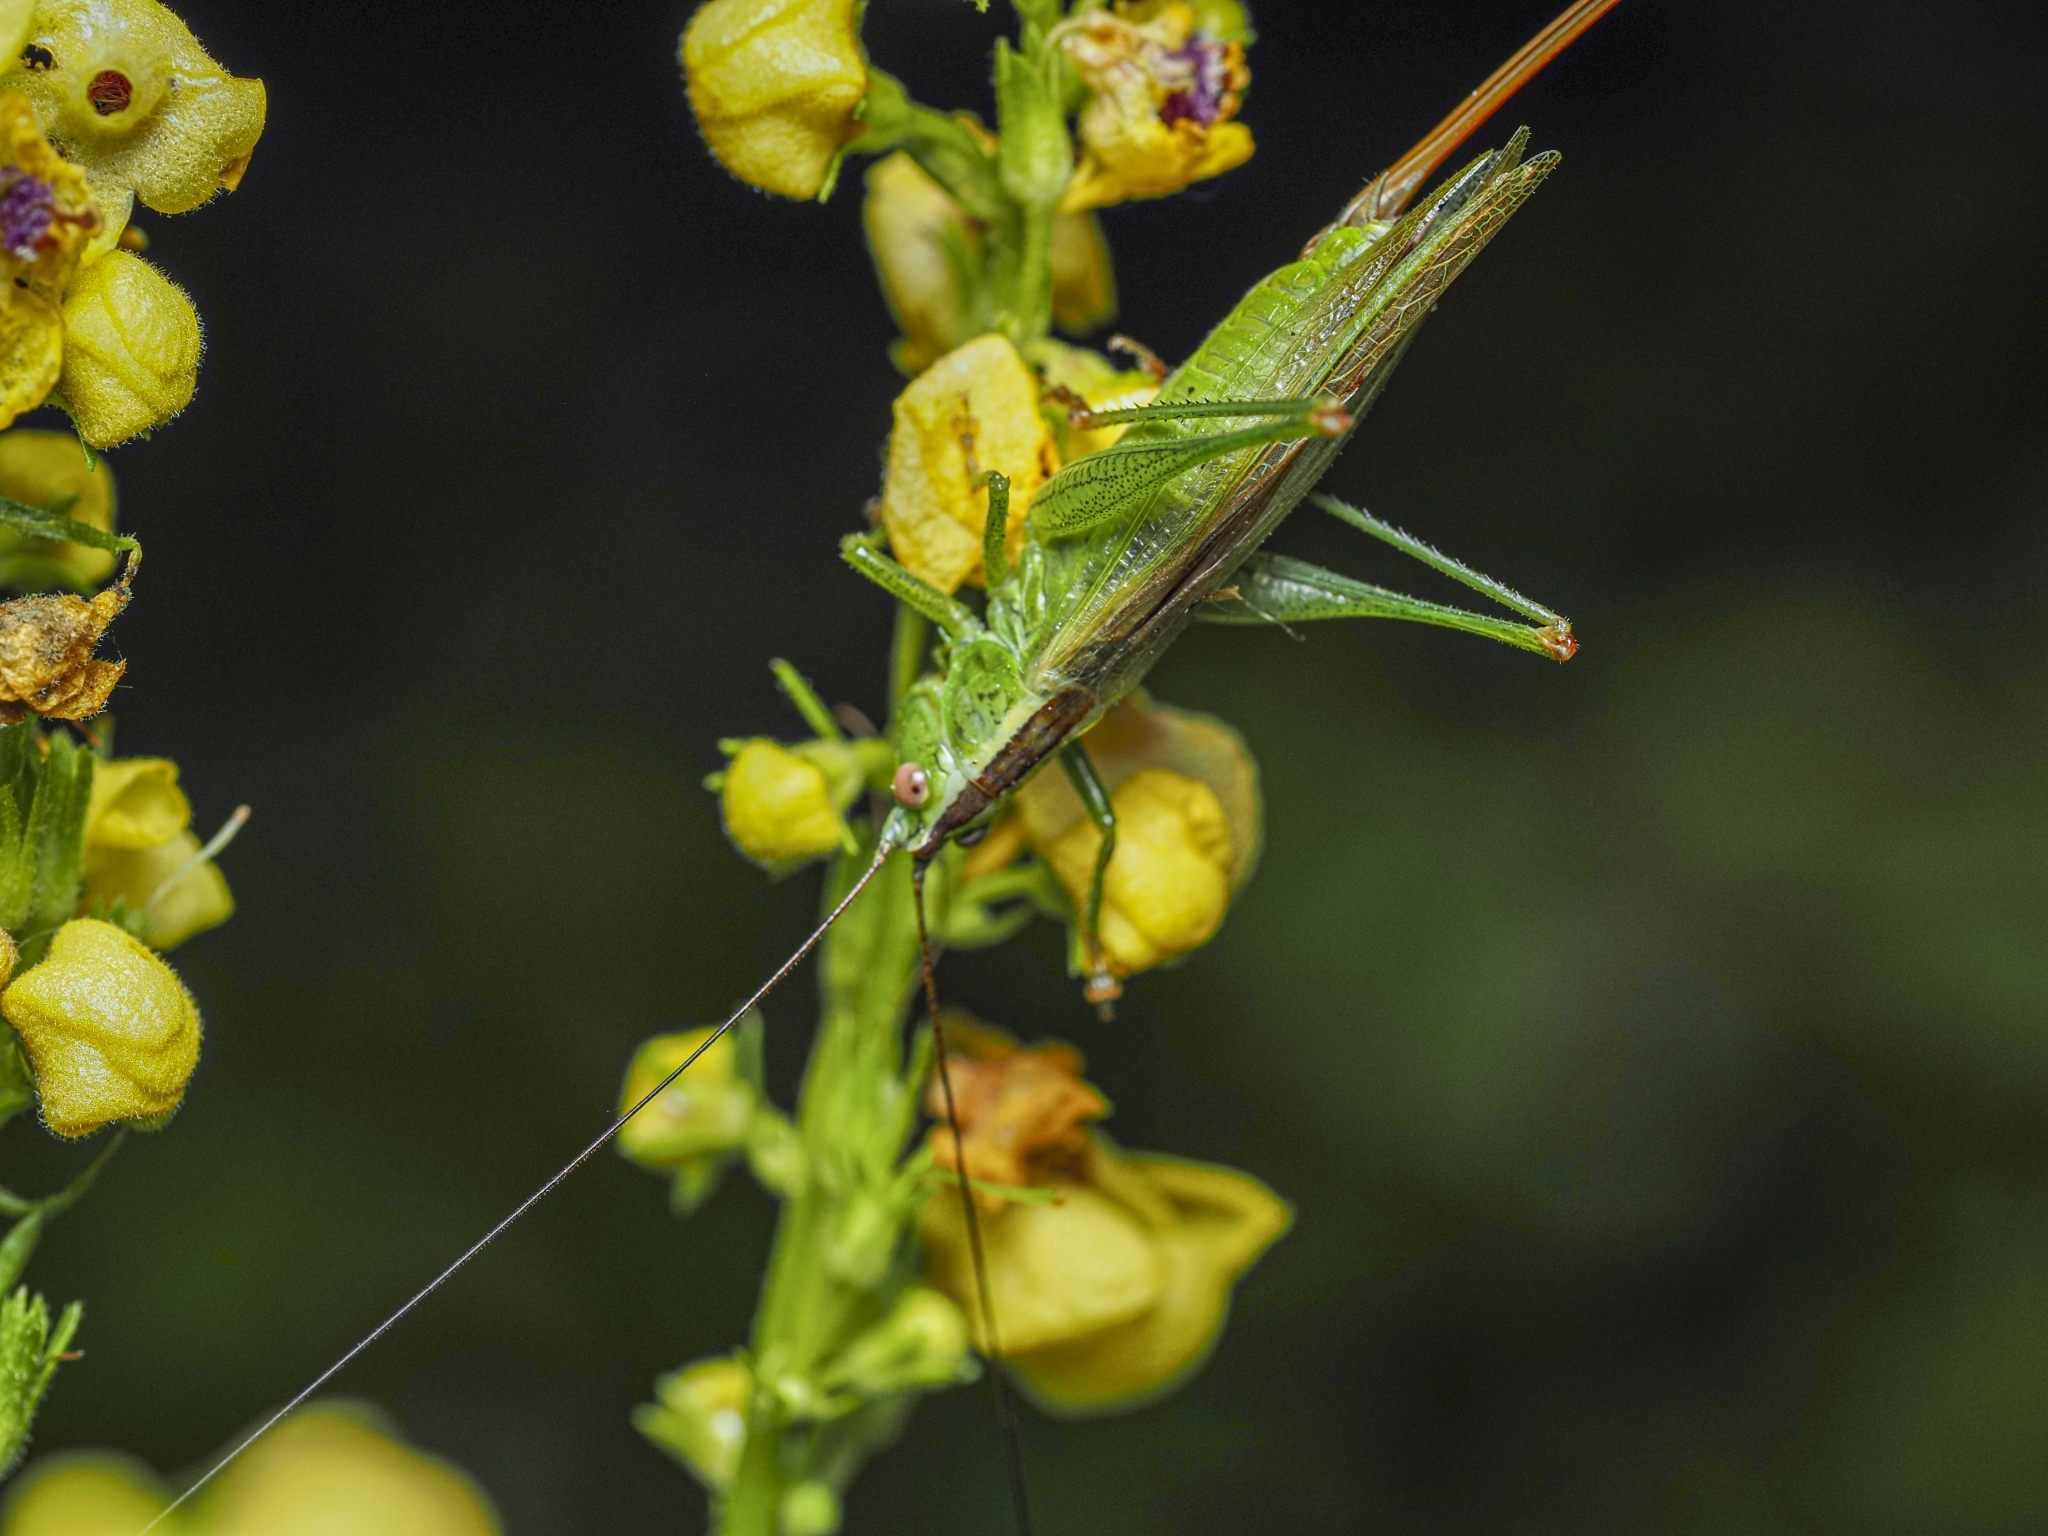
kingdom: Animalia
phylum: Arthropoda
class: Insecta
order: Orthoptera
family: Tettigoniidae
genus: Conocephalus
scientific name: Conocephalus fuscus
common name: Long-winged conehead
